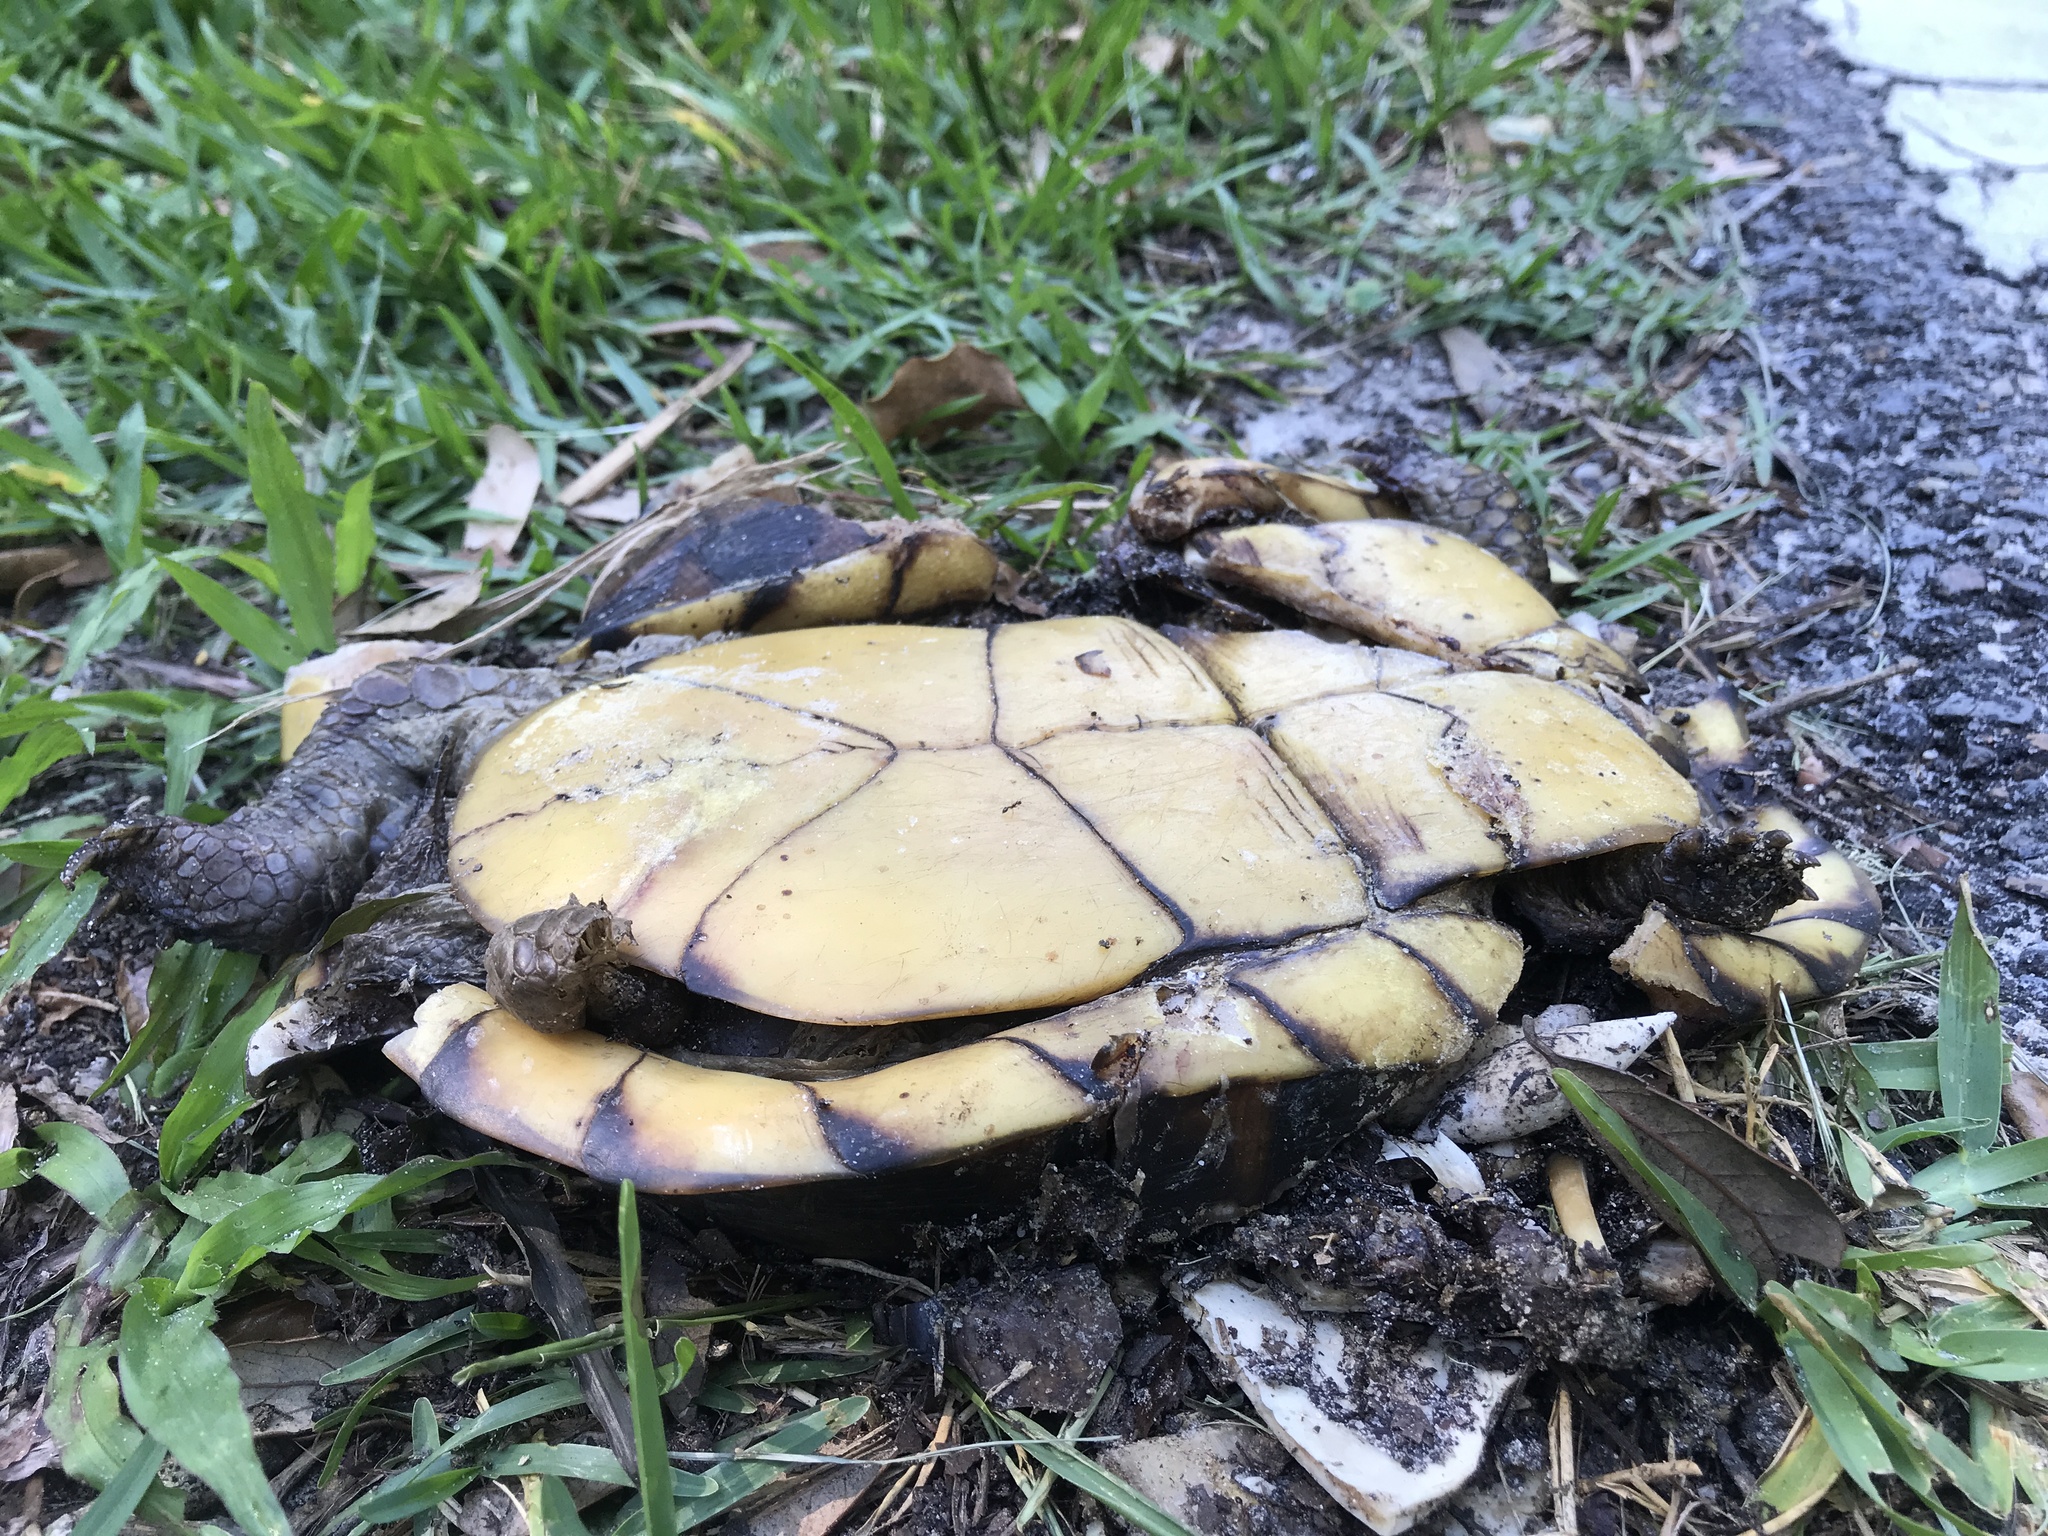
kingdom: Animalia
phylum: Chordata
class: Testudines
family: Emydidae
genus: Terrapene
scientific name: Terrapene carolina
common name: Common box turtle
